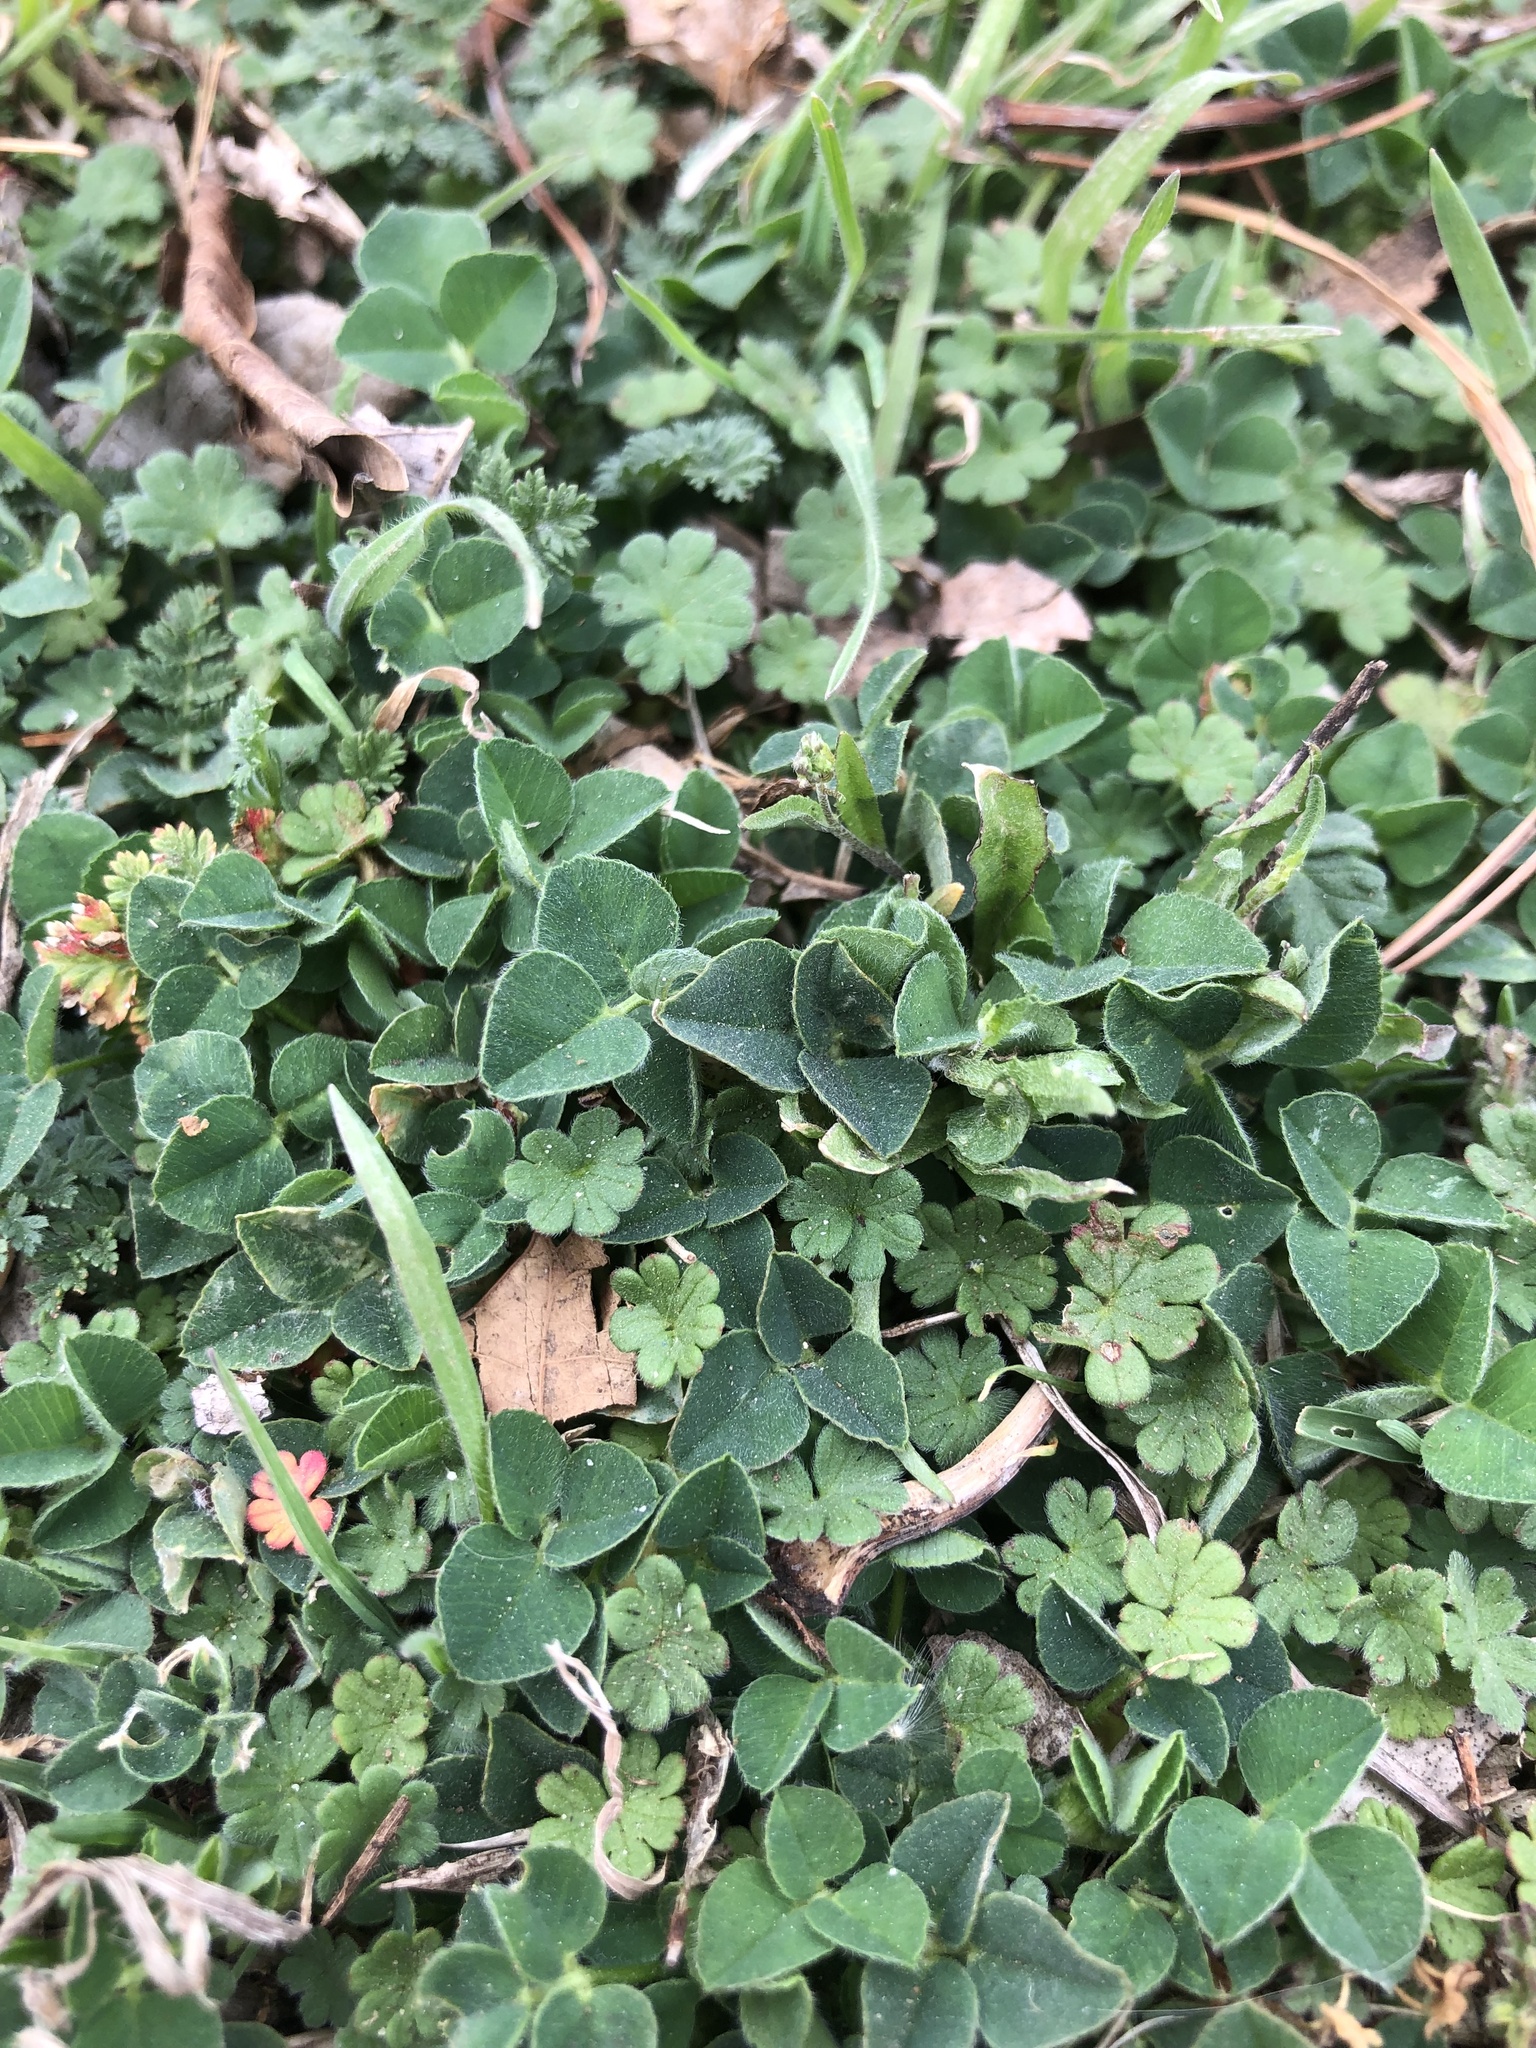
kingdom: Plantae
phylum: Tracheophyta
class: Magnoliopsida
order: Fabales
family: Fabaceae
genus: Medicago
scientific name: Medicago lupulina
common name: Black medick
